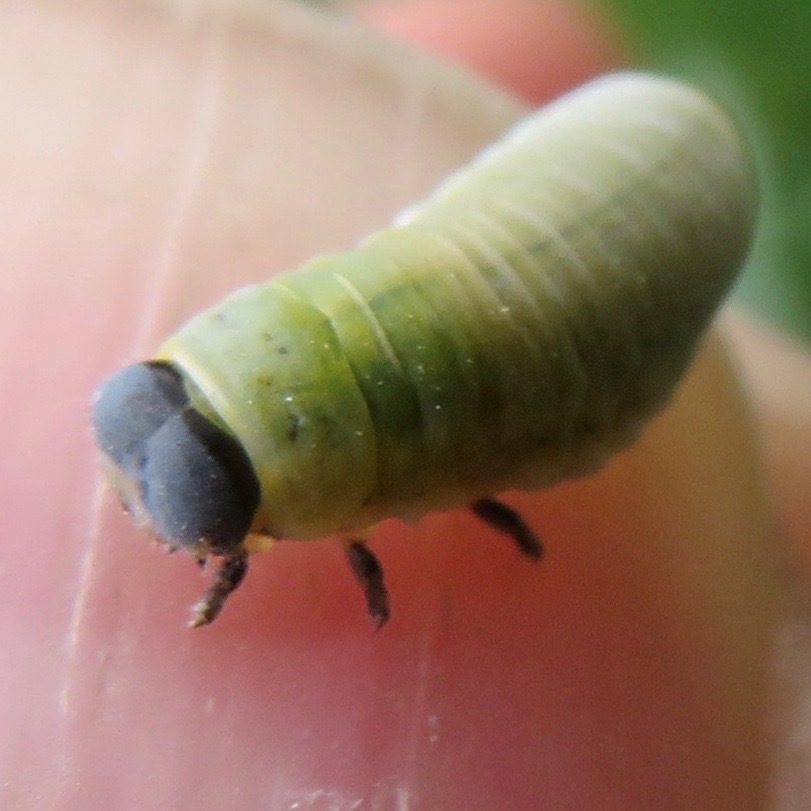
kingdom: Animalia
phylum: Arthropoda
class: Insecta
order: Coleoptera
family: Chrysomelidae
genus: Paropsisterna
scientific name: Paropsisterna m-fuscum
